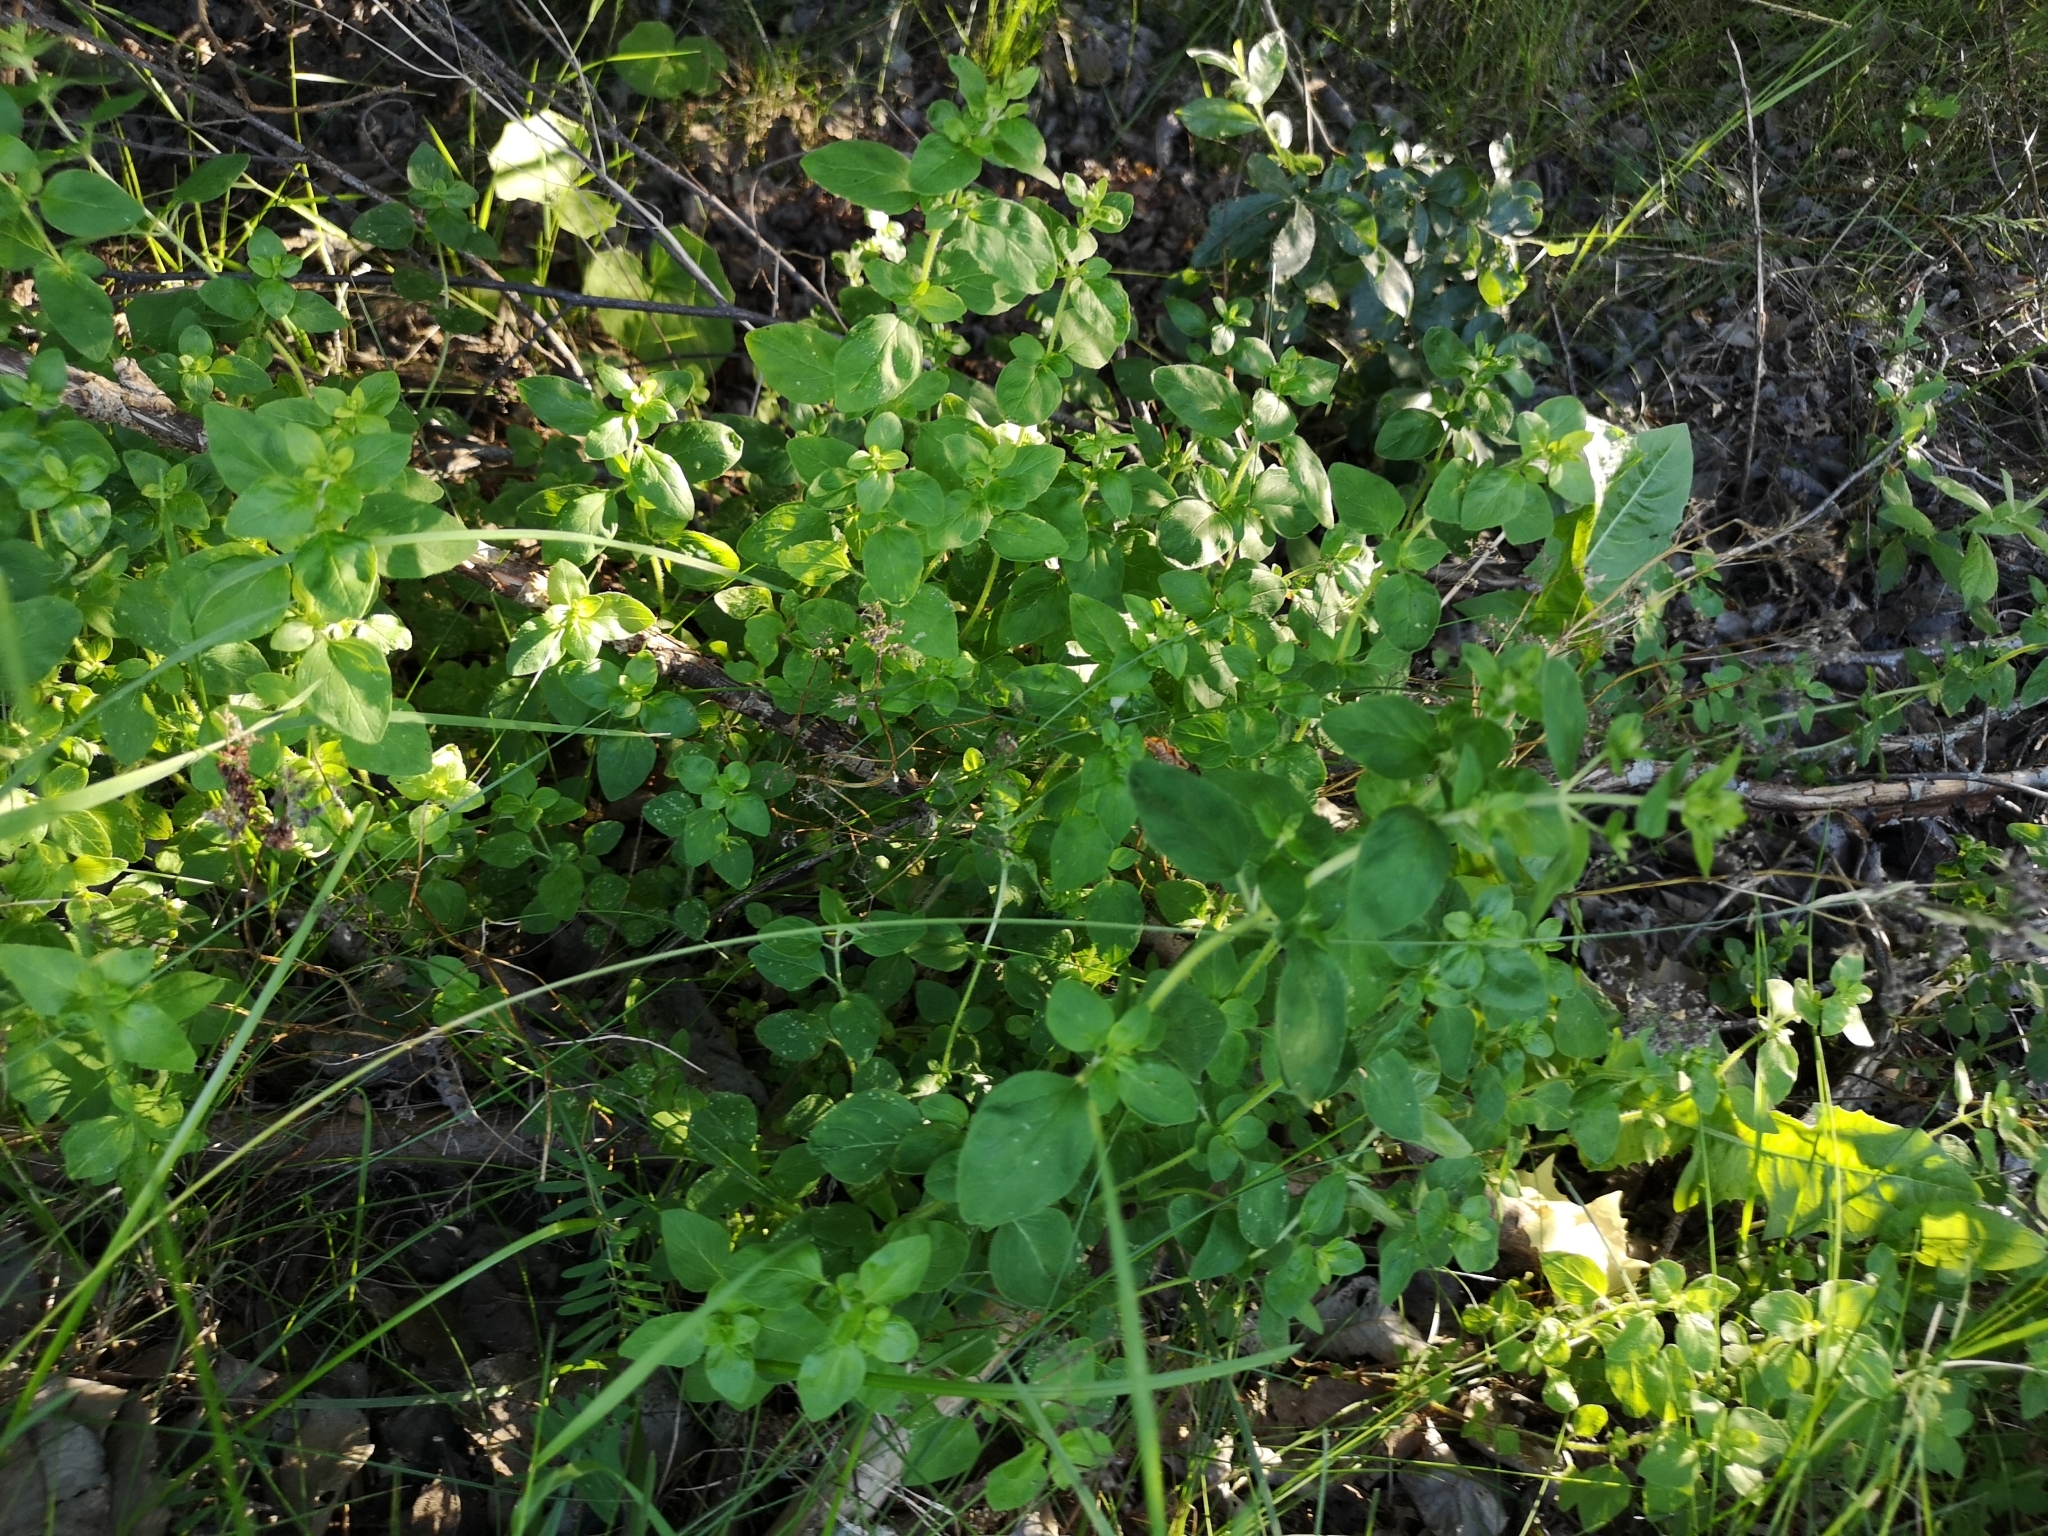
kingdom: Plantae
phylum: Tracheophyta
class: Magnoliopsida
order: Lamiales
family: Lamiaceae
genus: Origanum
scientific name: Origanum vulgare
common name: Wild marjoram
